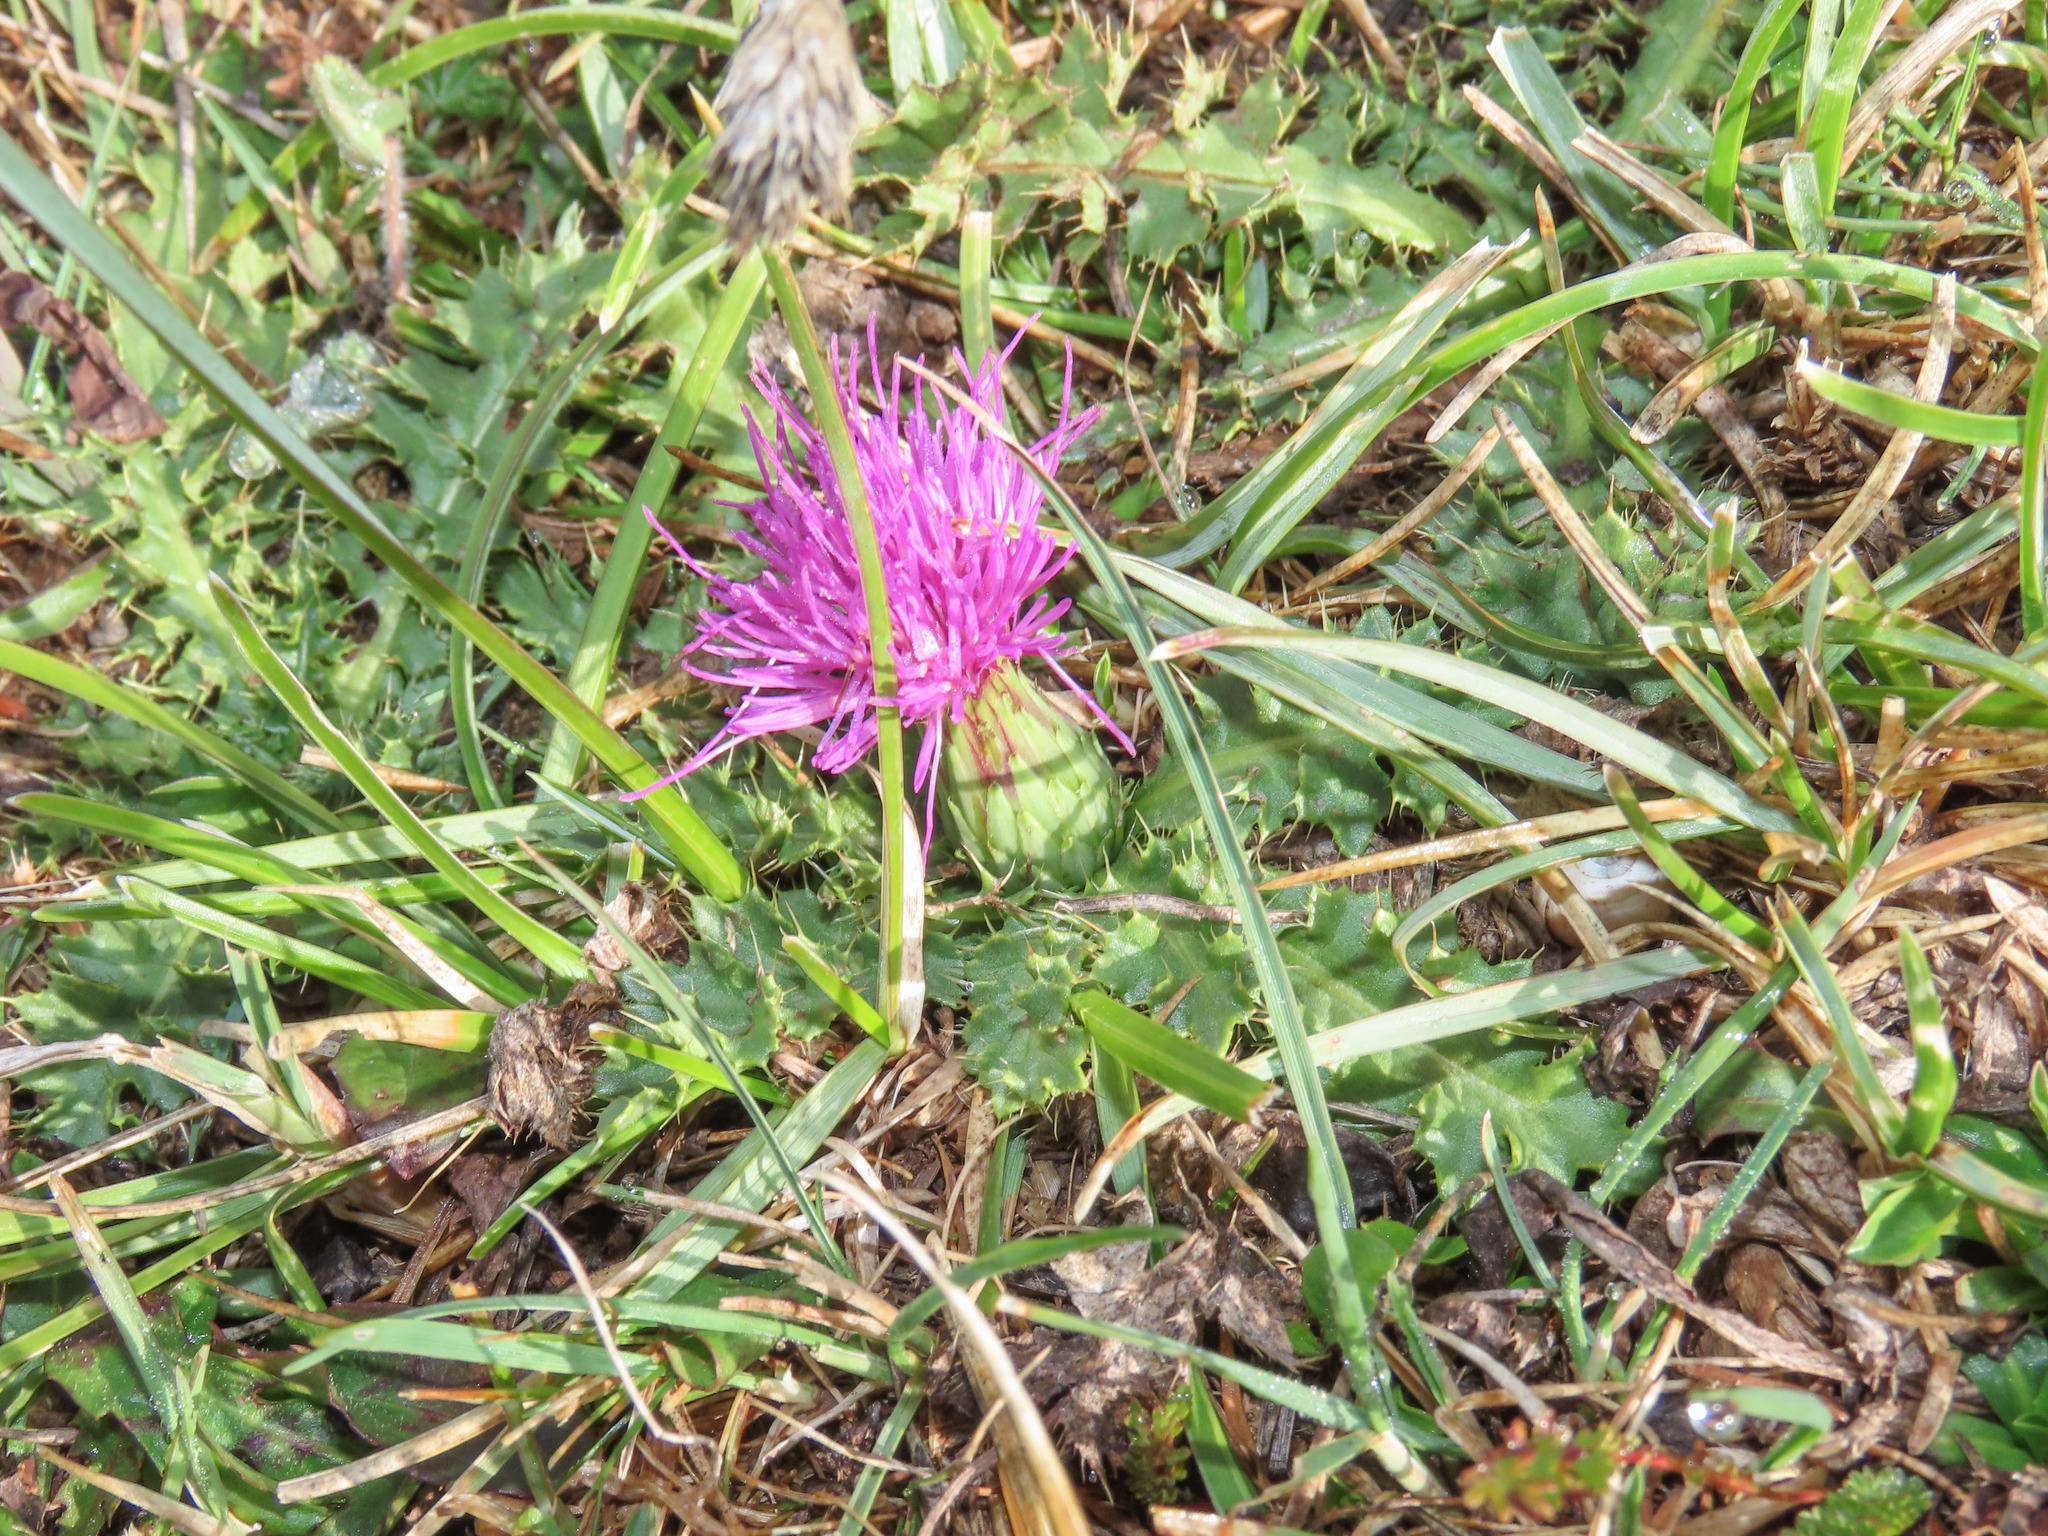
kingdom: Plantae
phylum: Tracheophyta
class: Magnoliopsida
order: Asterales
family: Asteraceae
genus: Cirsium
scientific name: Cirsium acaulon
